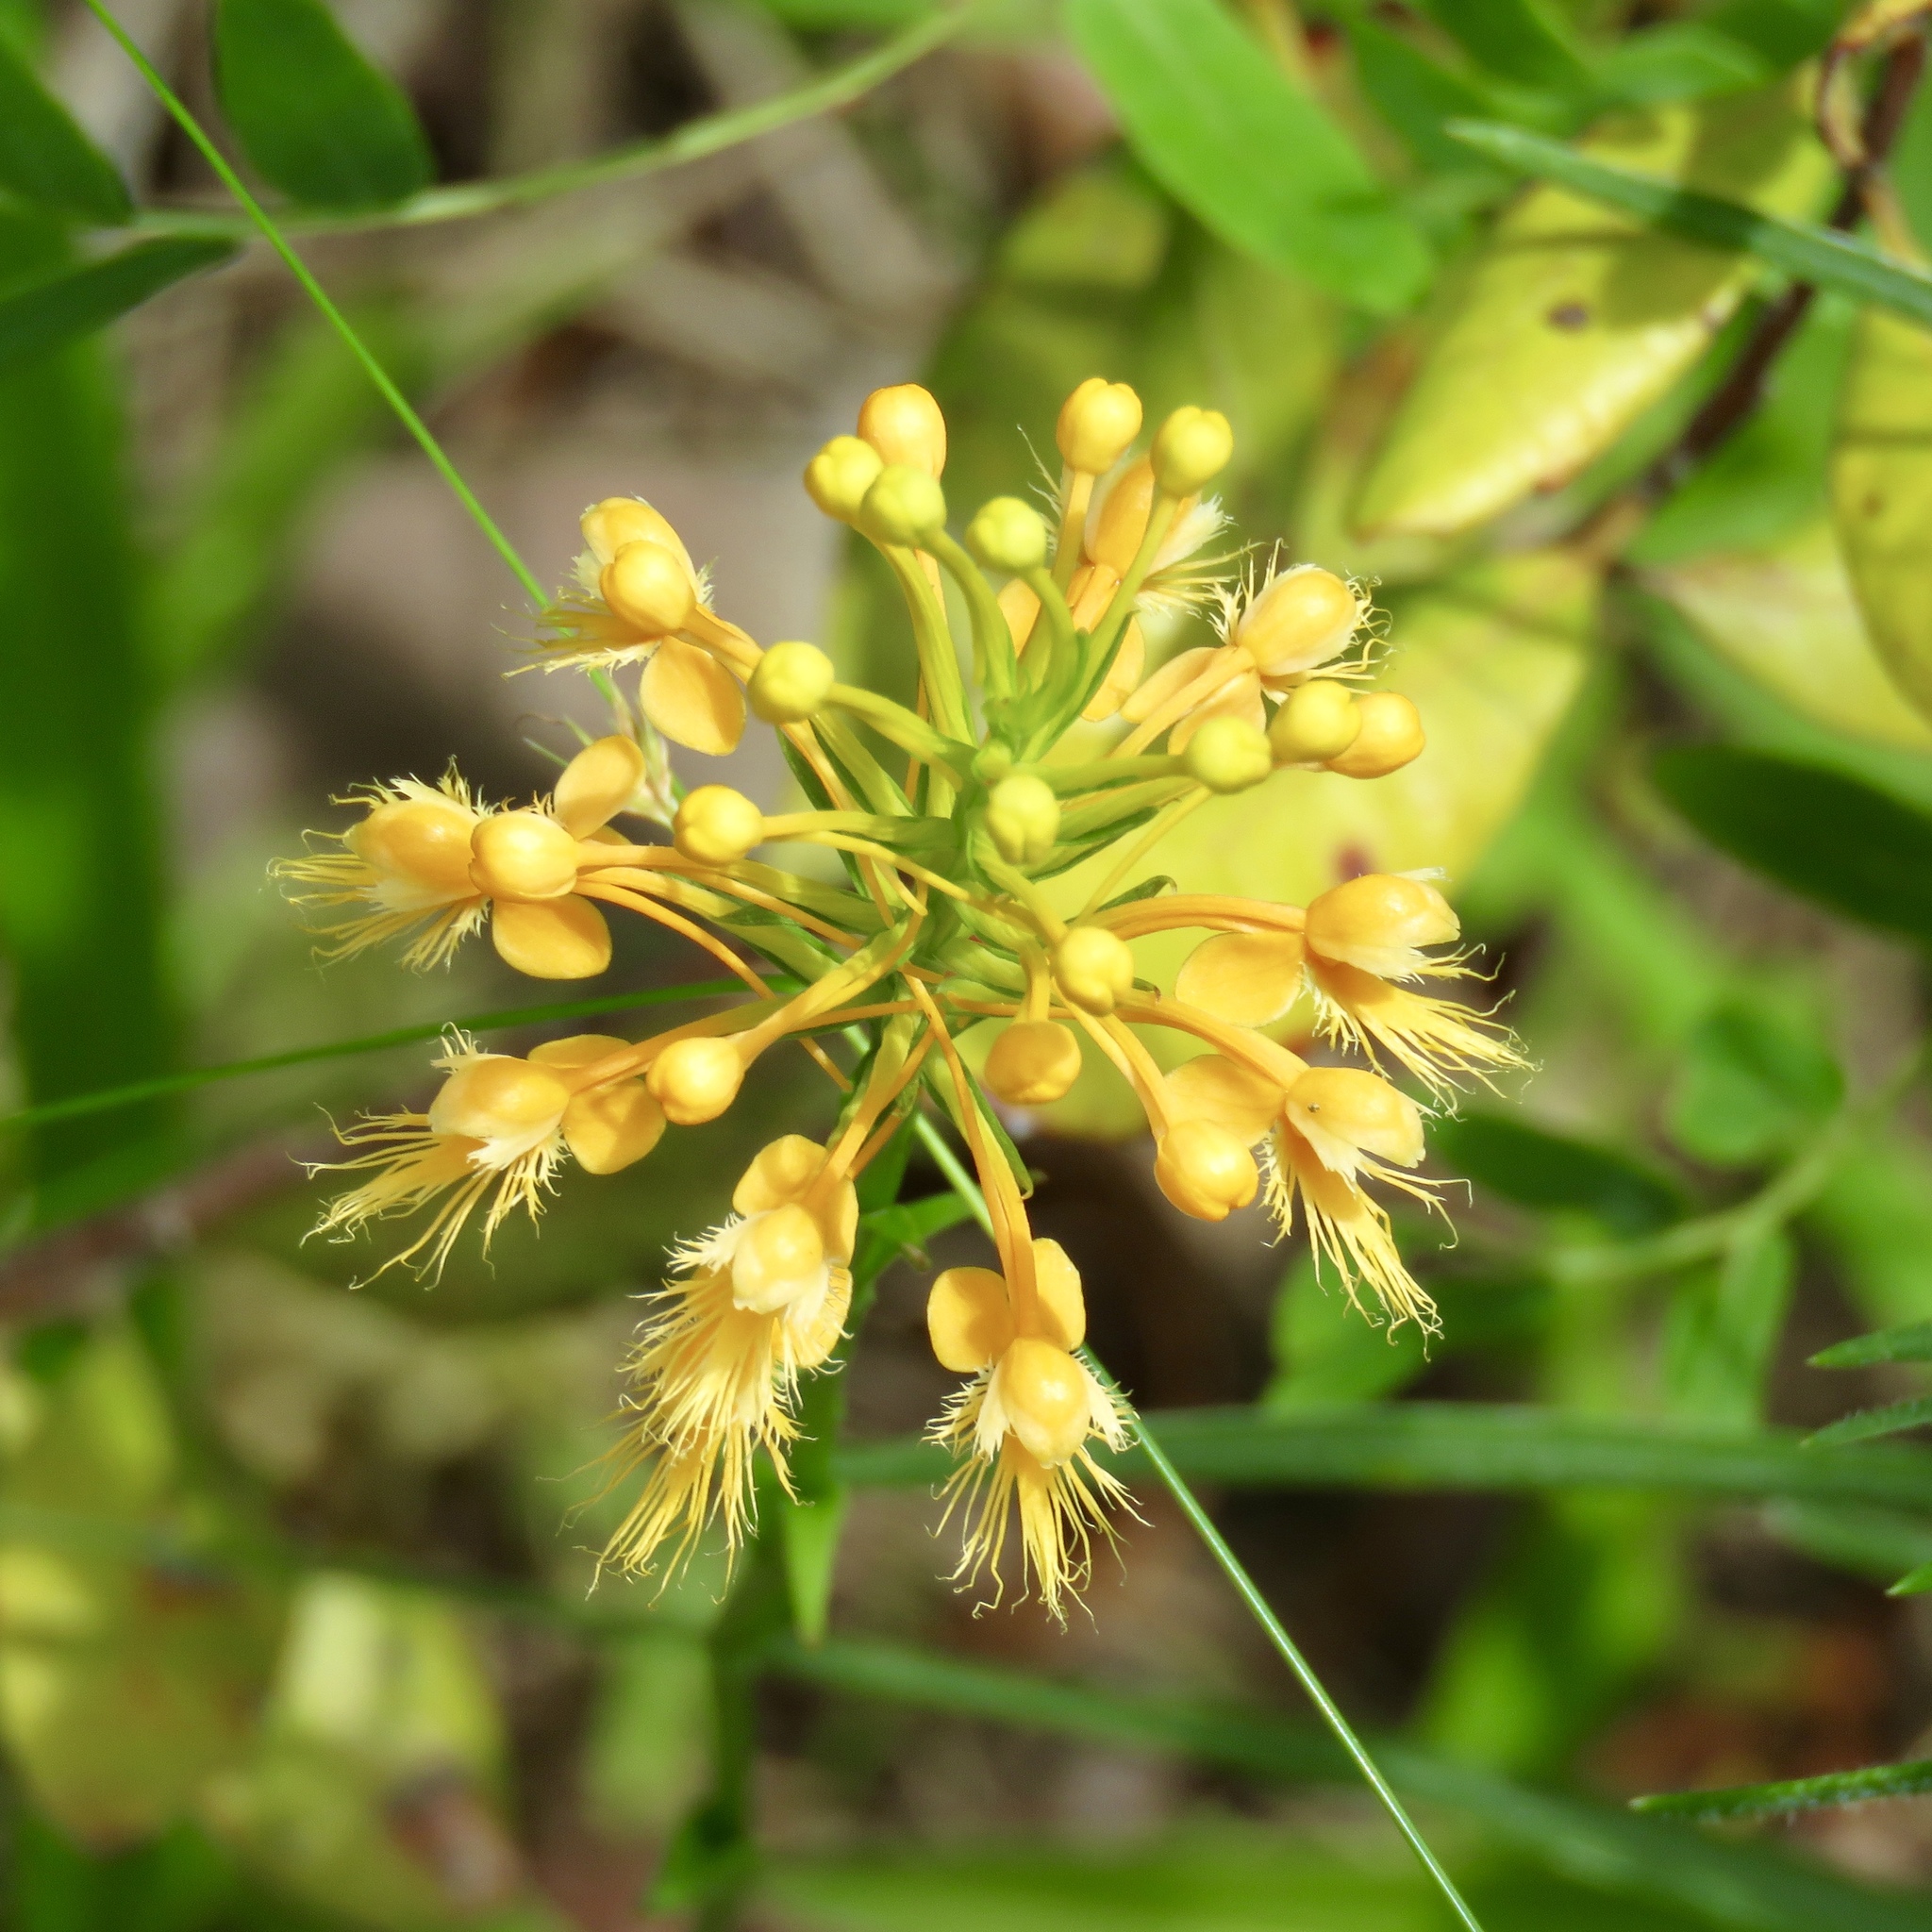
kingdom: Plantae
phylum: Tracheophyta
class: Liliopsida
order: Asparagales
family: Orchidaceae
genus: Platanthera
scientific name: Platanthera chapmanii
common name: Chapman’s fringed orchid
